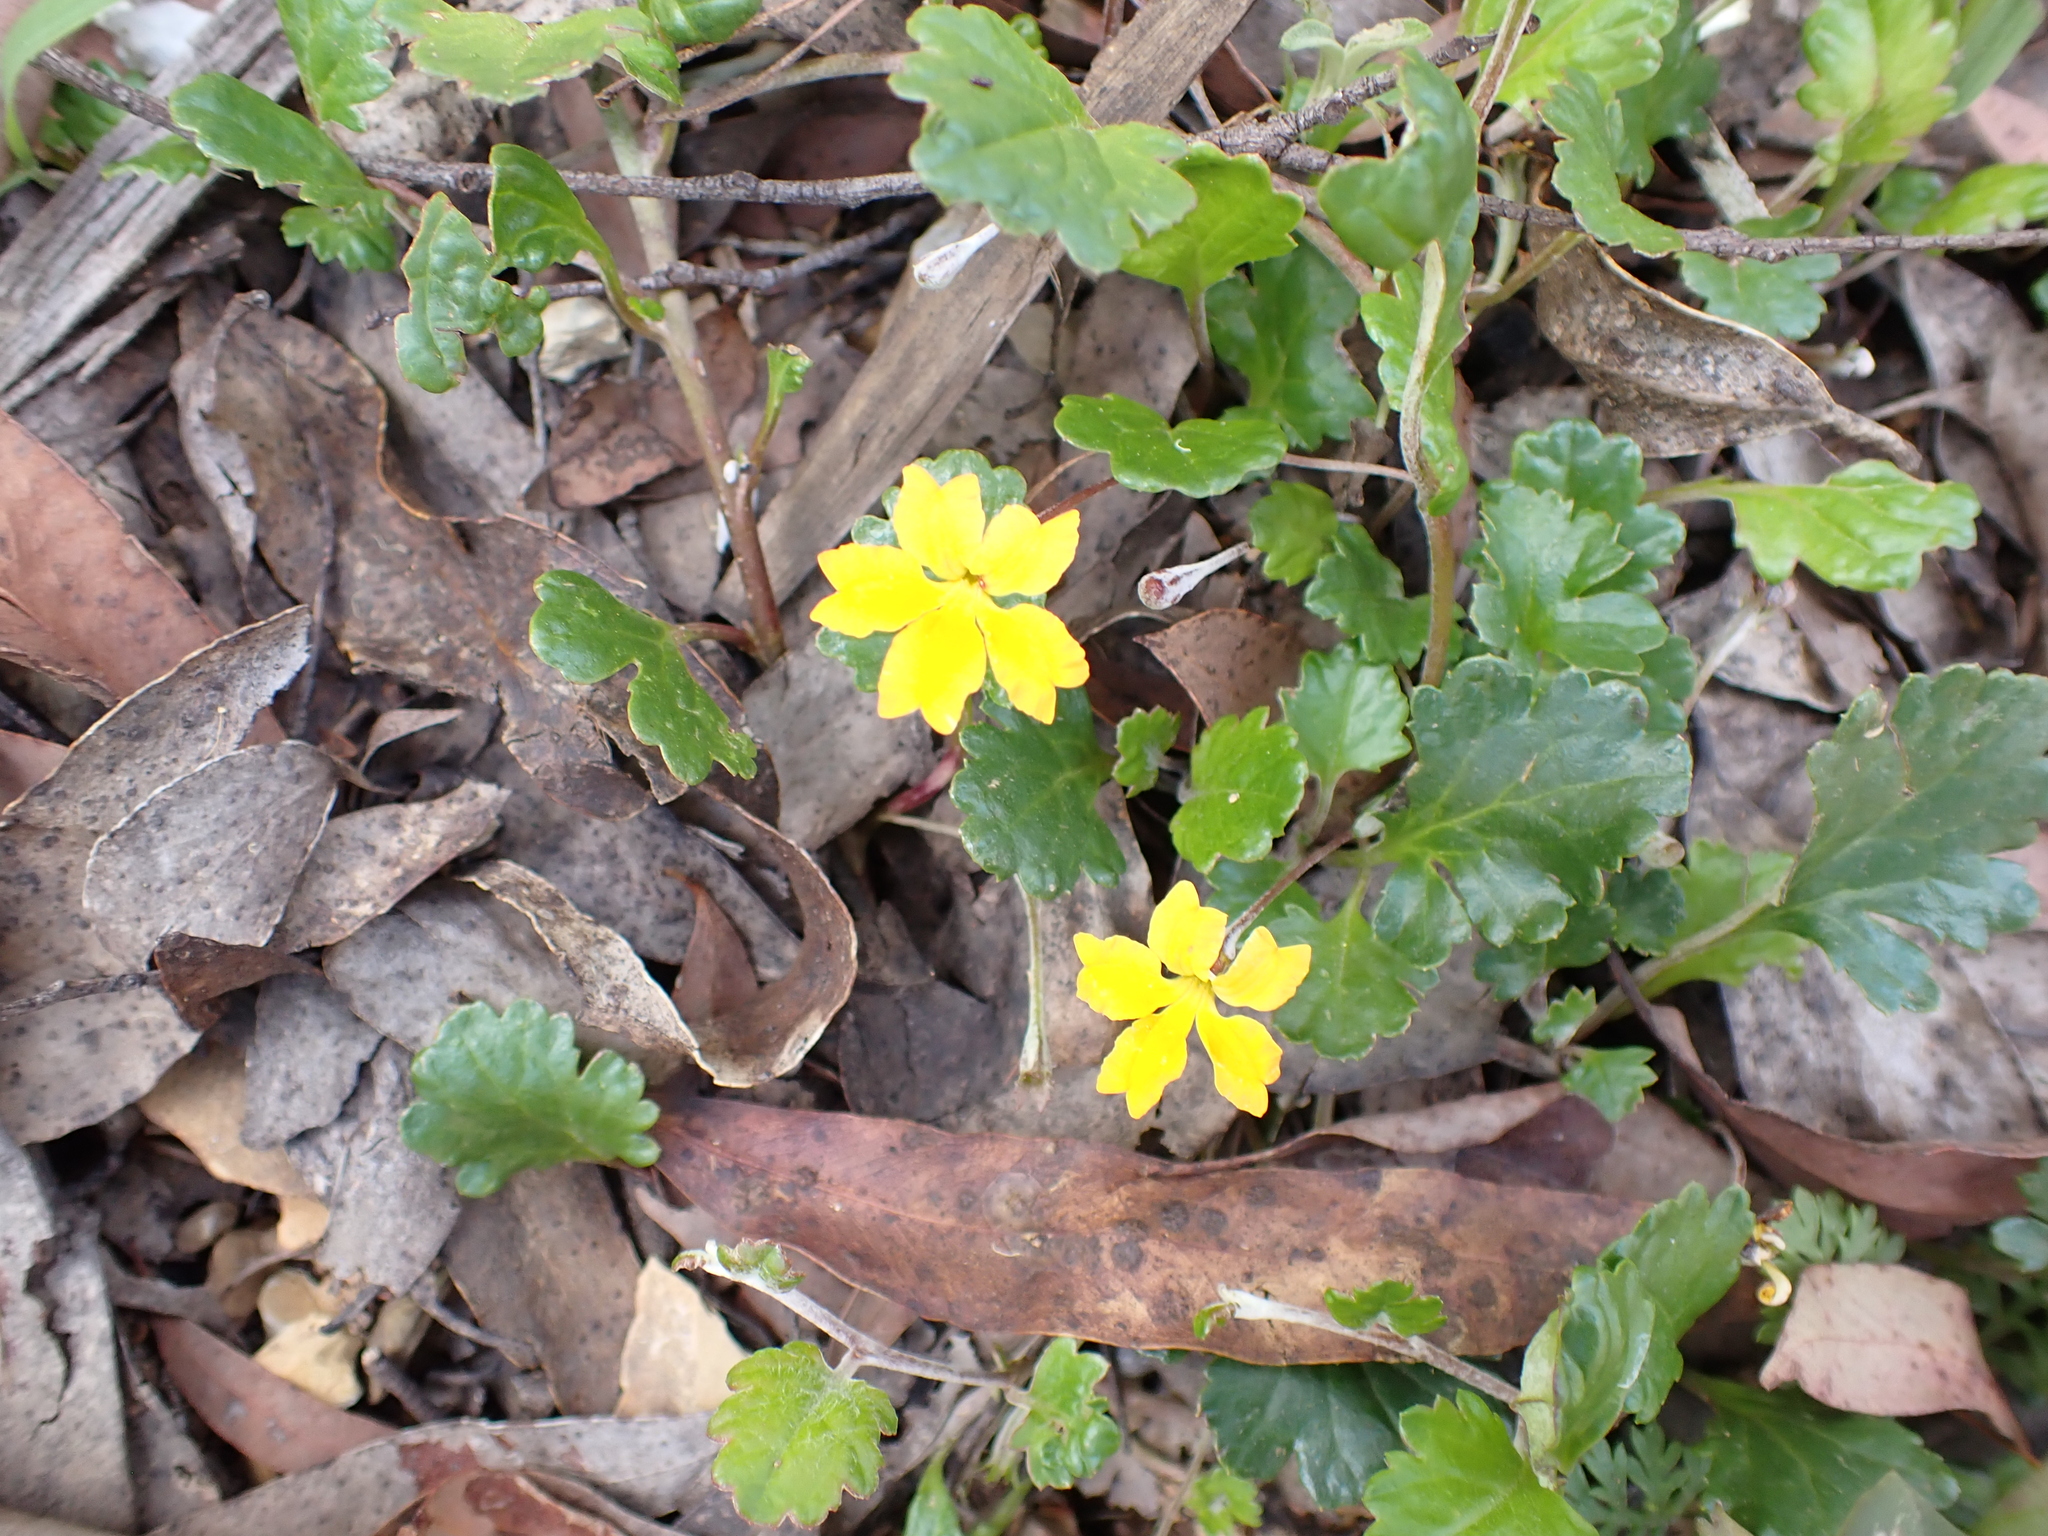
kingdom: Plantae
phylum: Tracheophyta
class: Magnoliopsida
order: Asterales
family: Goodeniaceae
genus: Goodenia
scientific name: Goodenia hederacea
